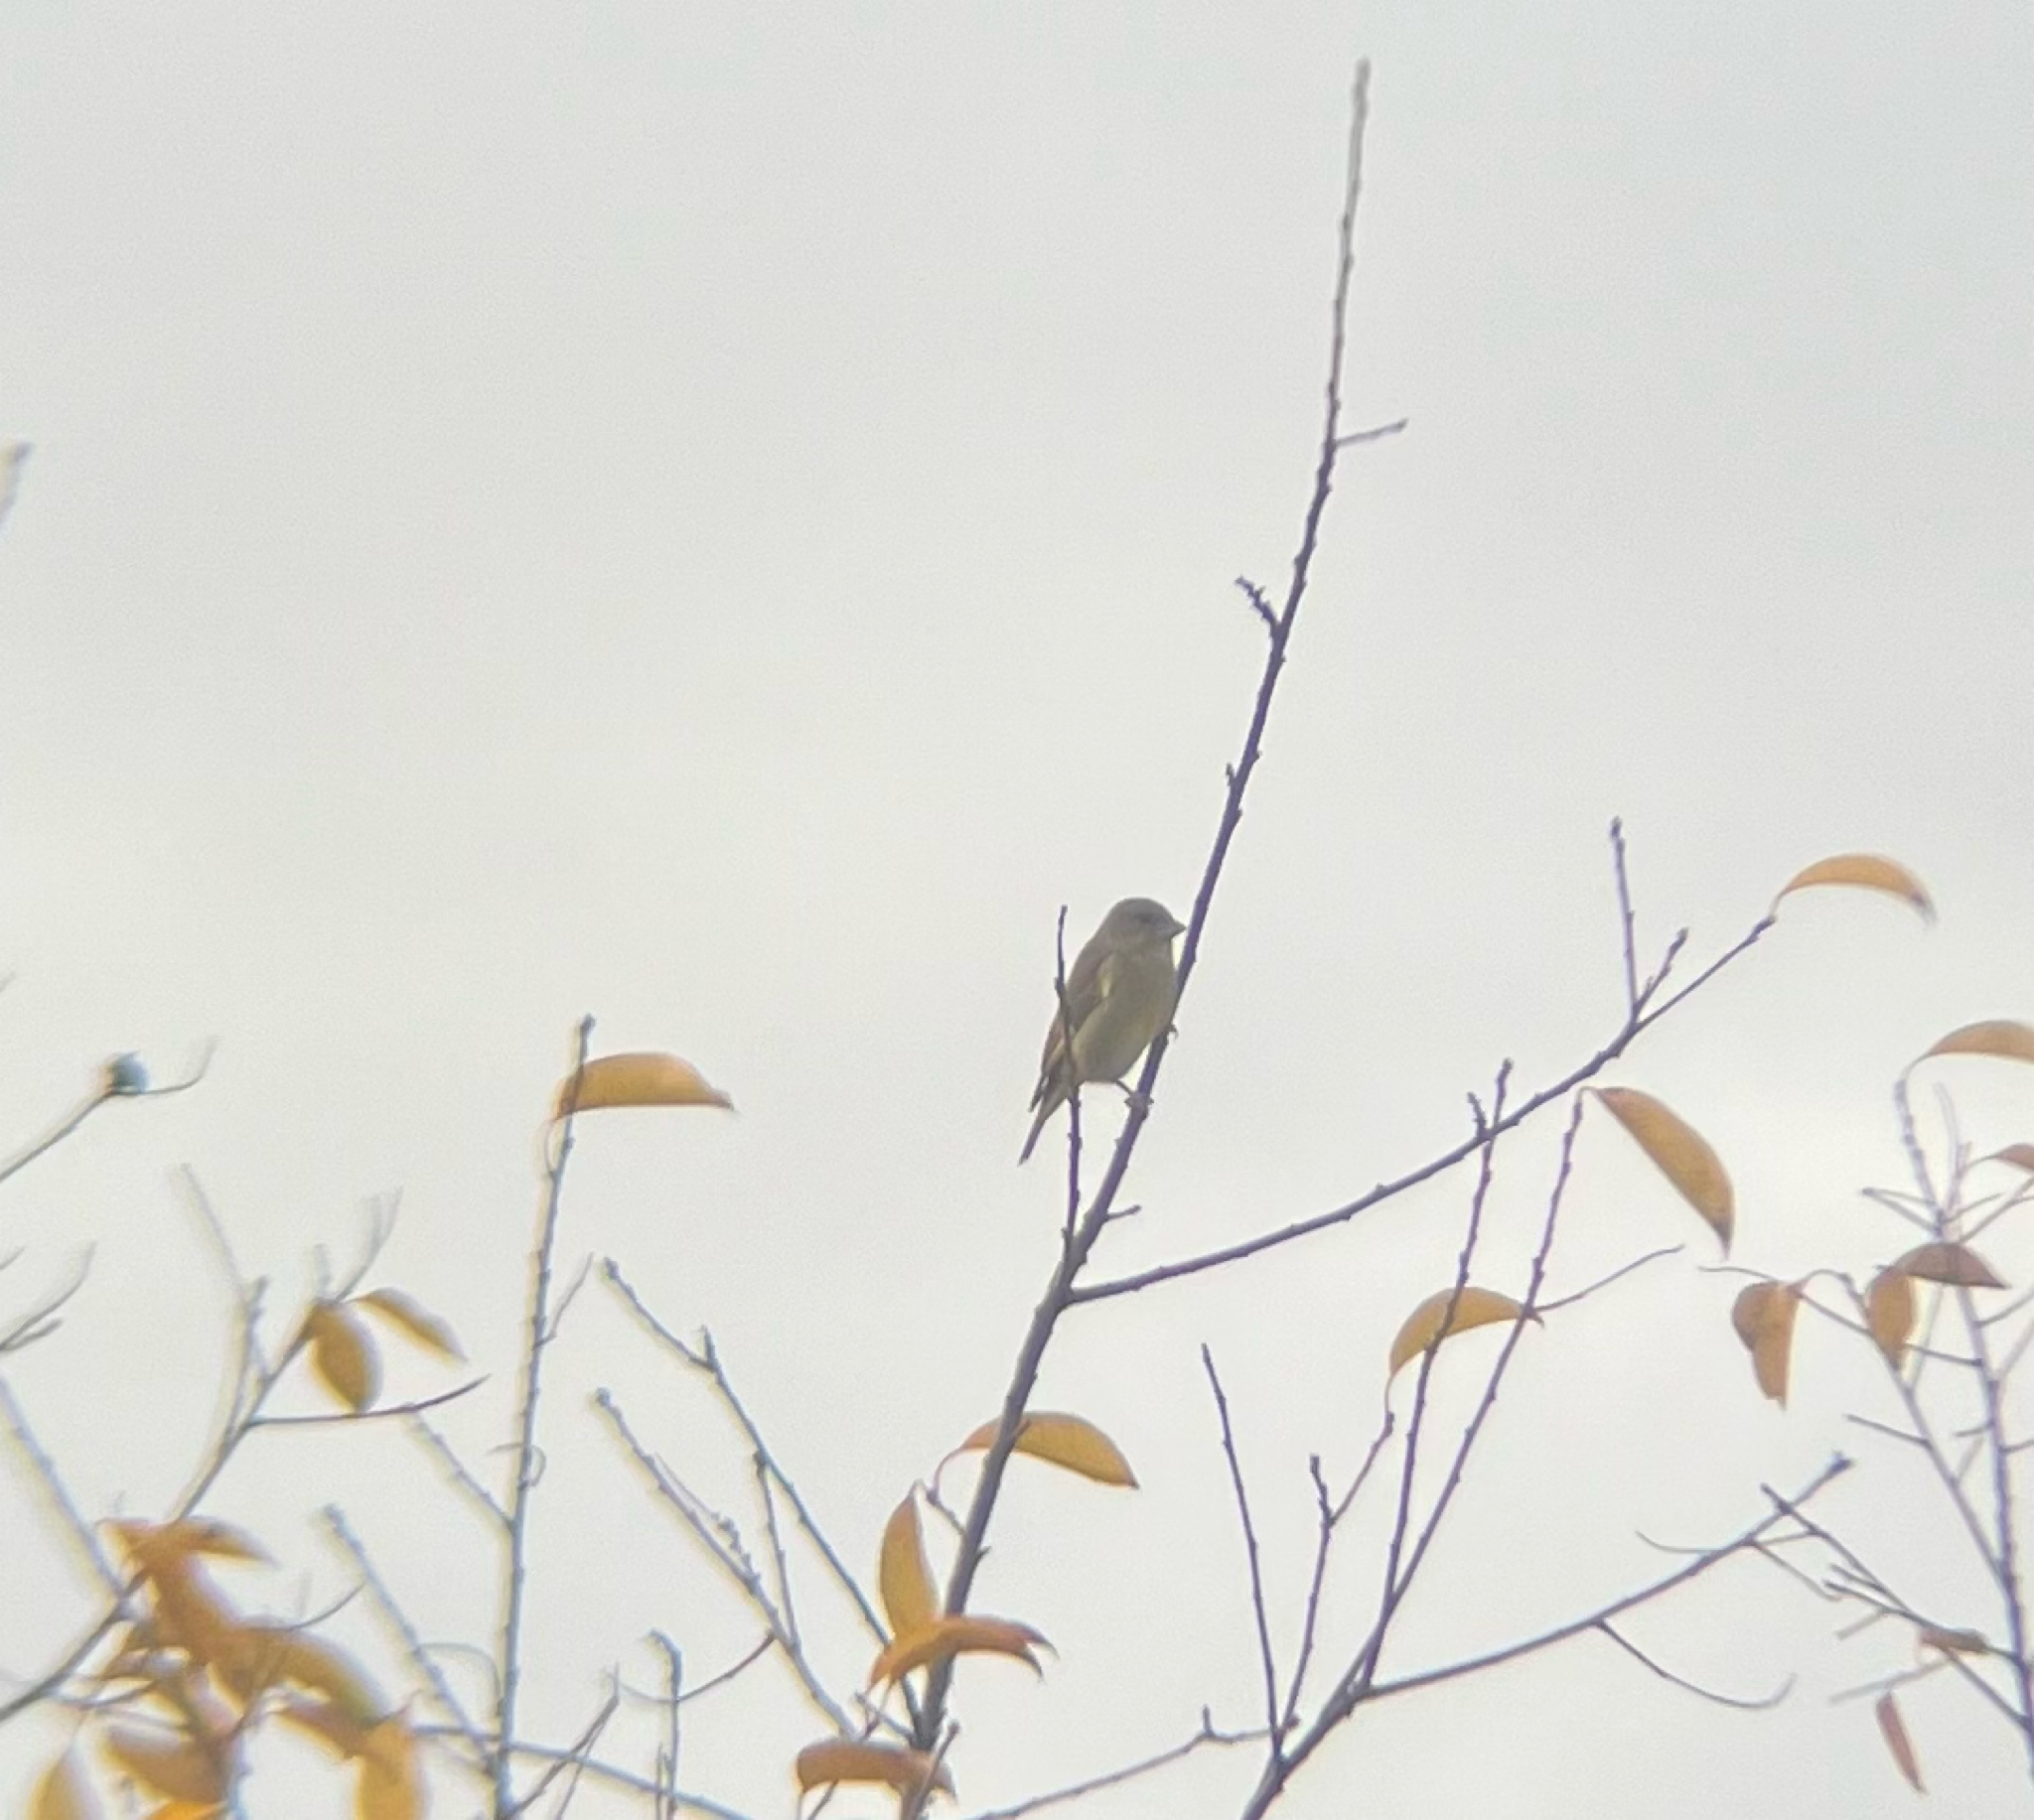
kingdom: Plantae
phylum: Tracheophyta
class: Liliopsida
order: Poales
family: Poaceae
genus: Chloris
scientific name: Chloris chloris
